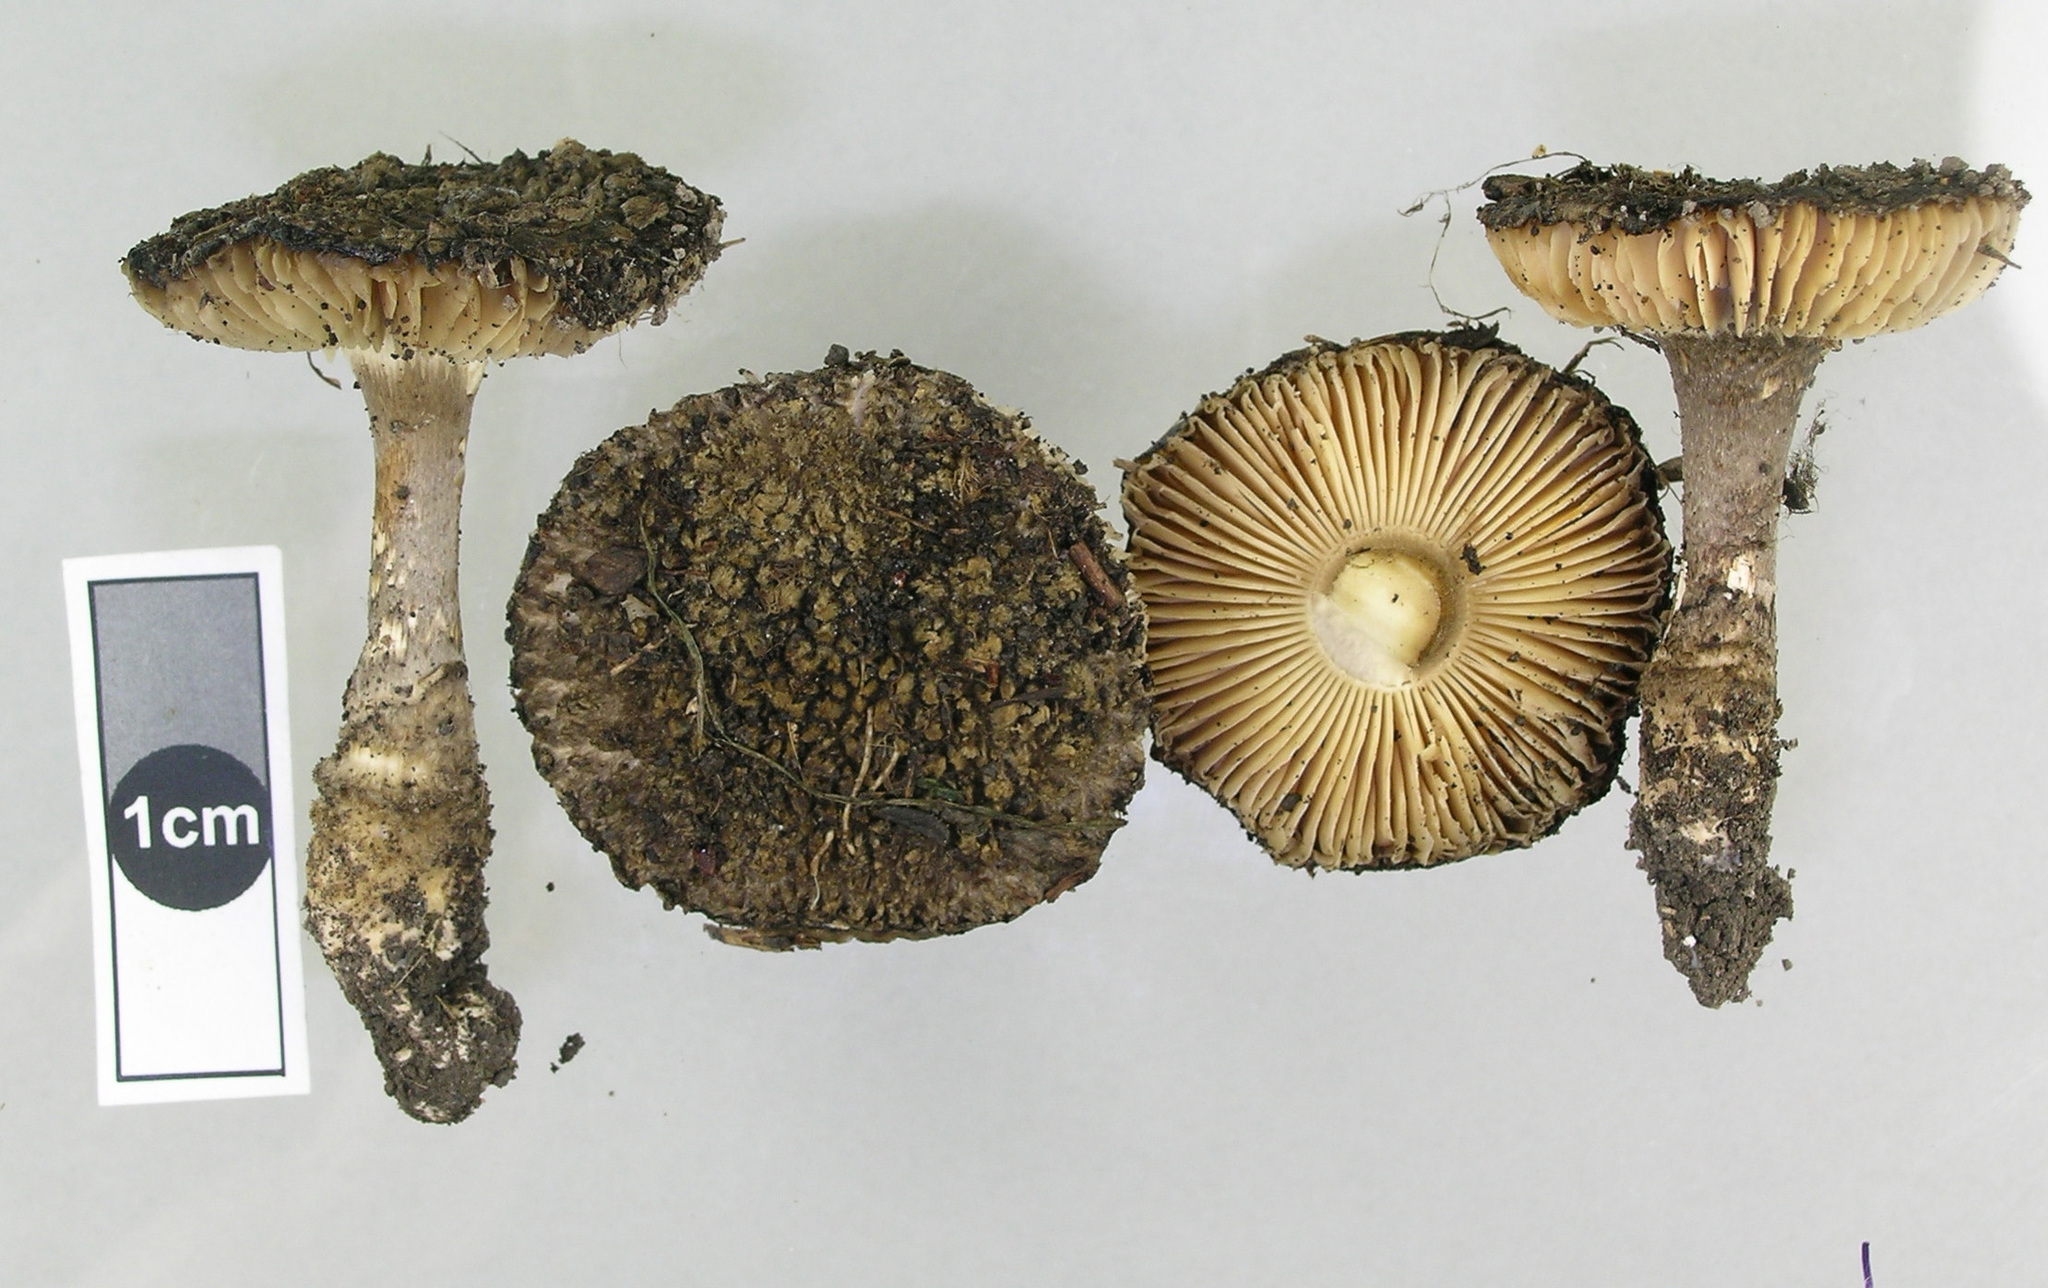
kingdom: Fungi
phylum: Basidiomycota
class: Agaricomycetes
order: Agaricales
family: Amanitaceae
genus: Amanita
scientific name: Amanita inopinata
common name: Surprise amanita
